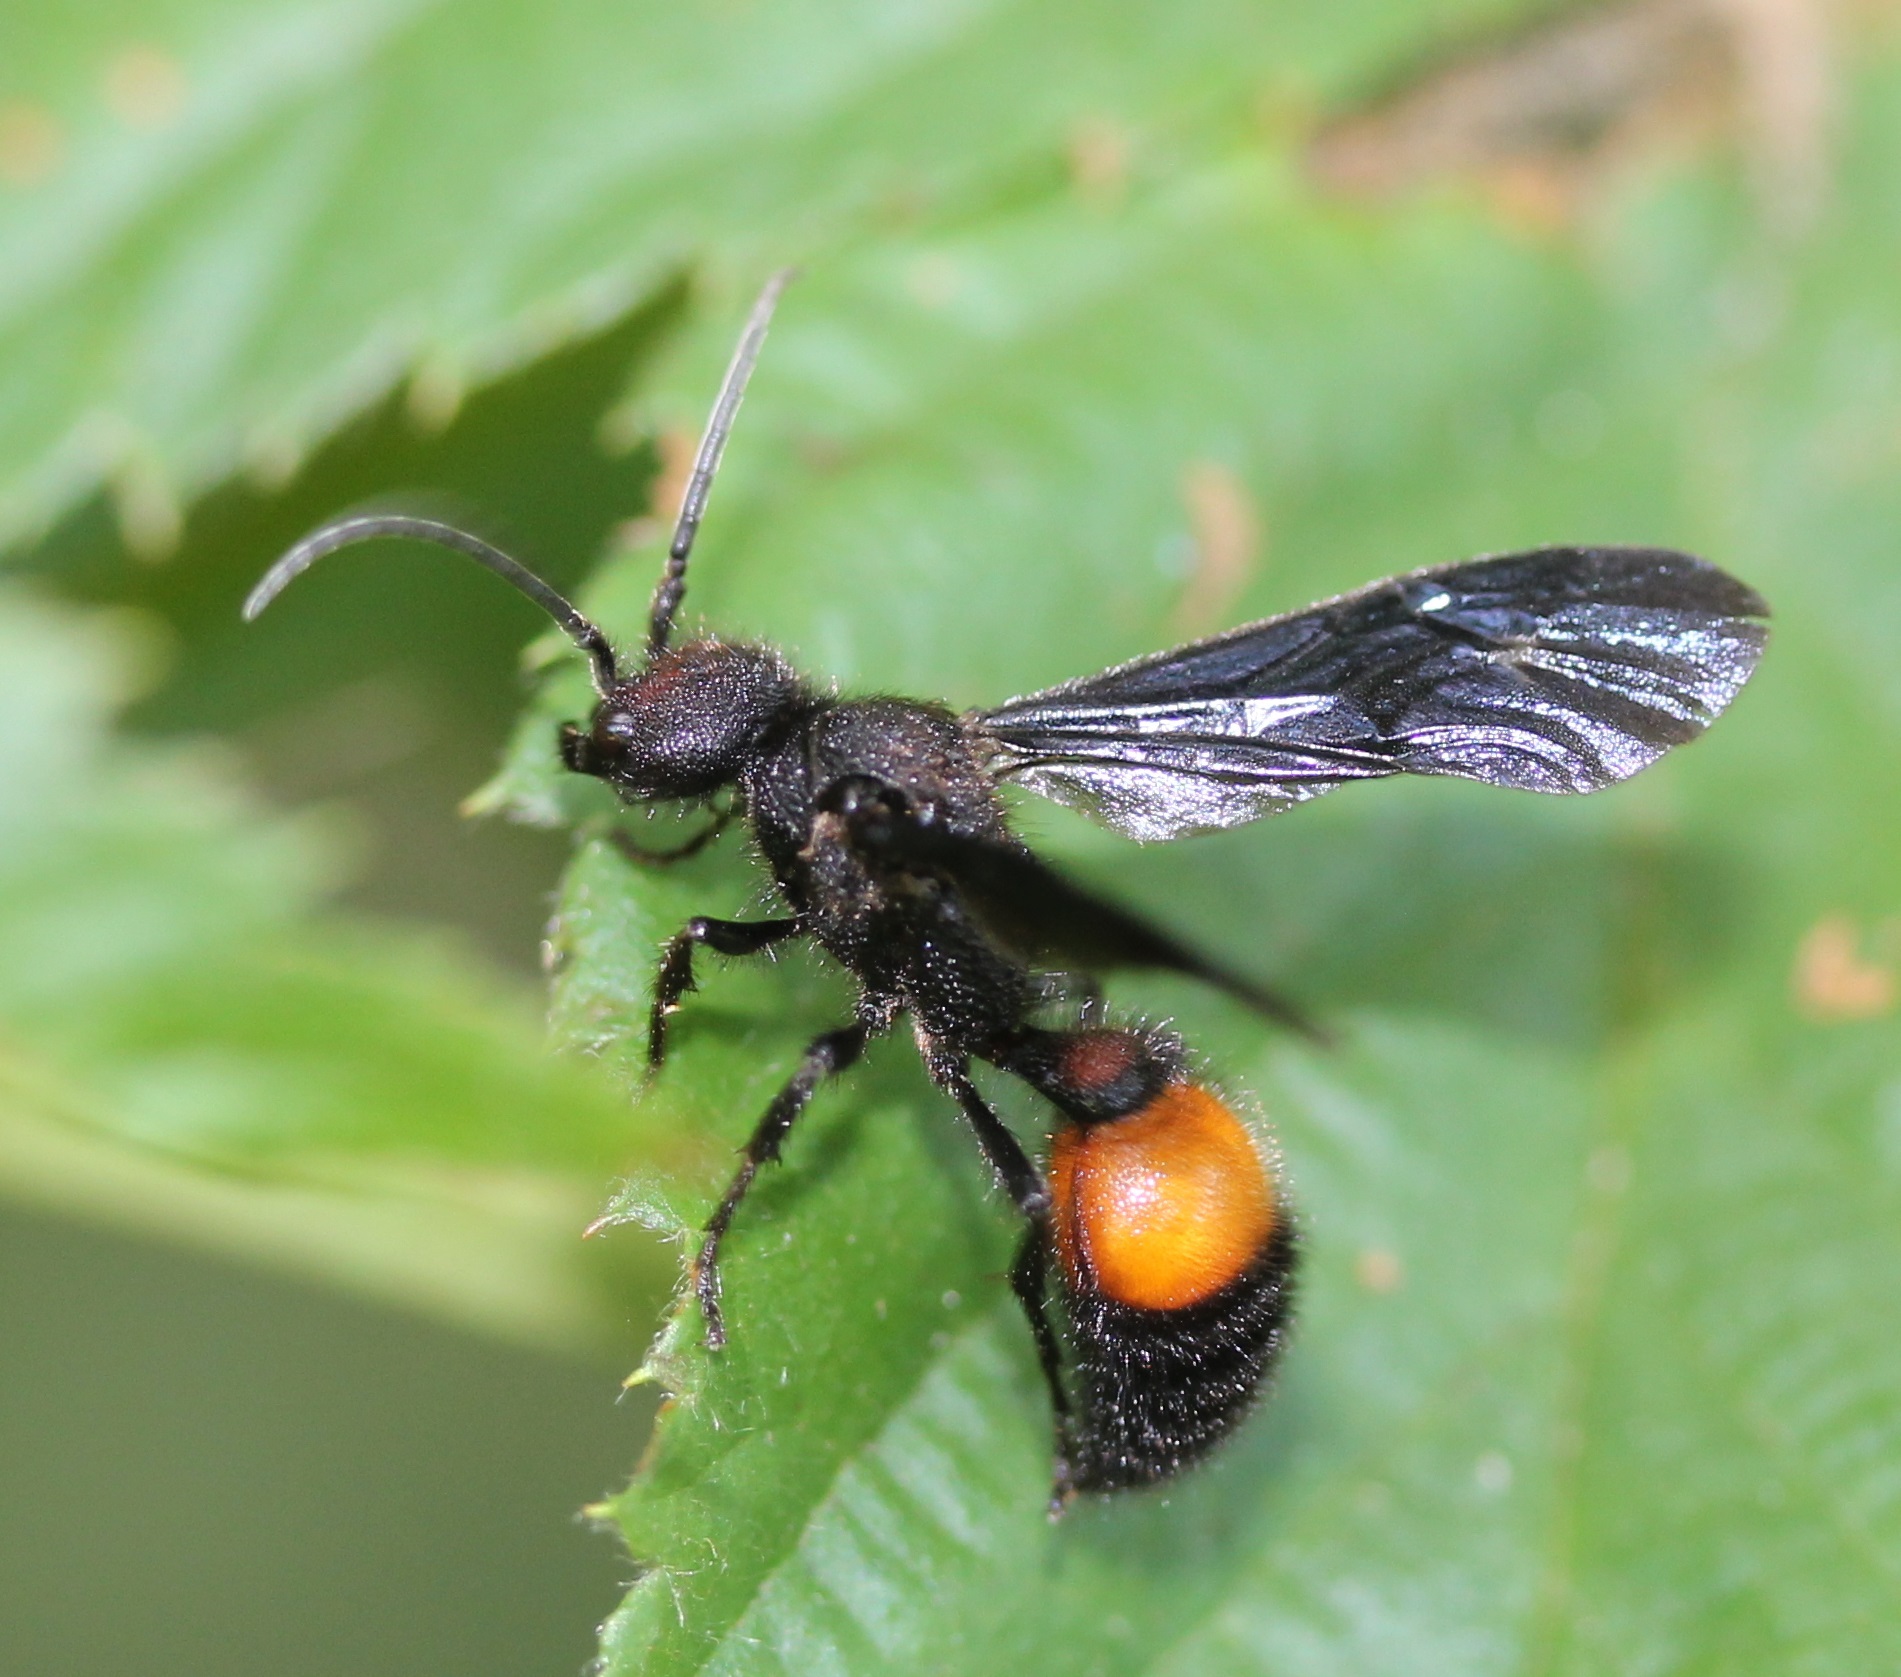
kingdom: Animalia
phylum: Arthropoda
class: Insecta
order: Hymenoptera
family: Mutillidae
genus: Sphaeropthalma
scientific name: Sphaeropthalma
